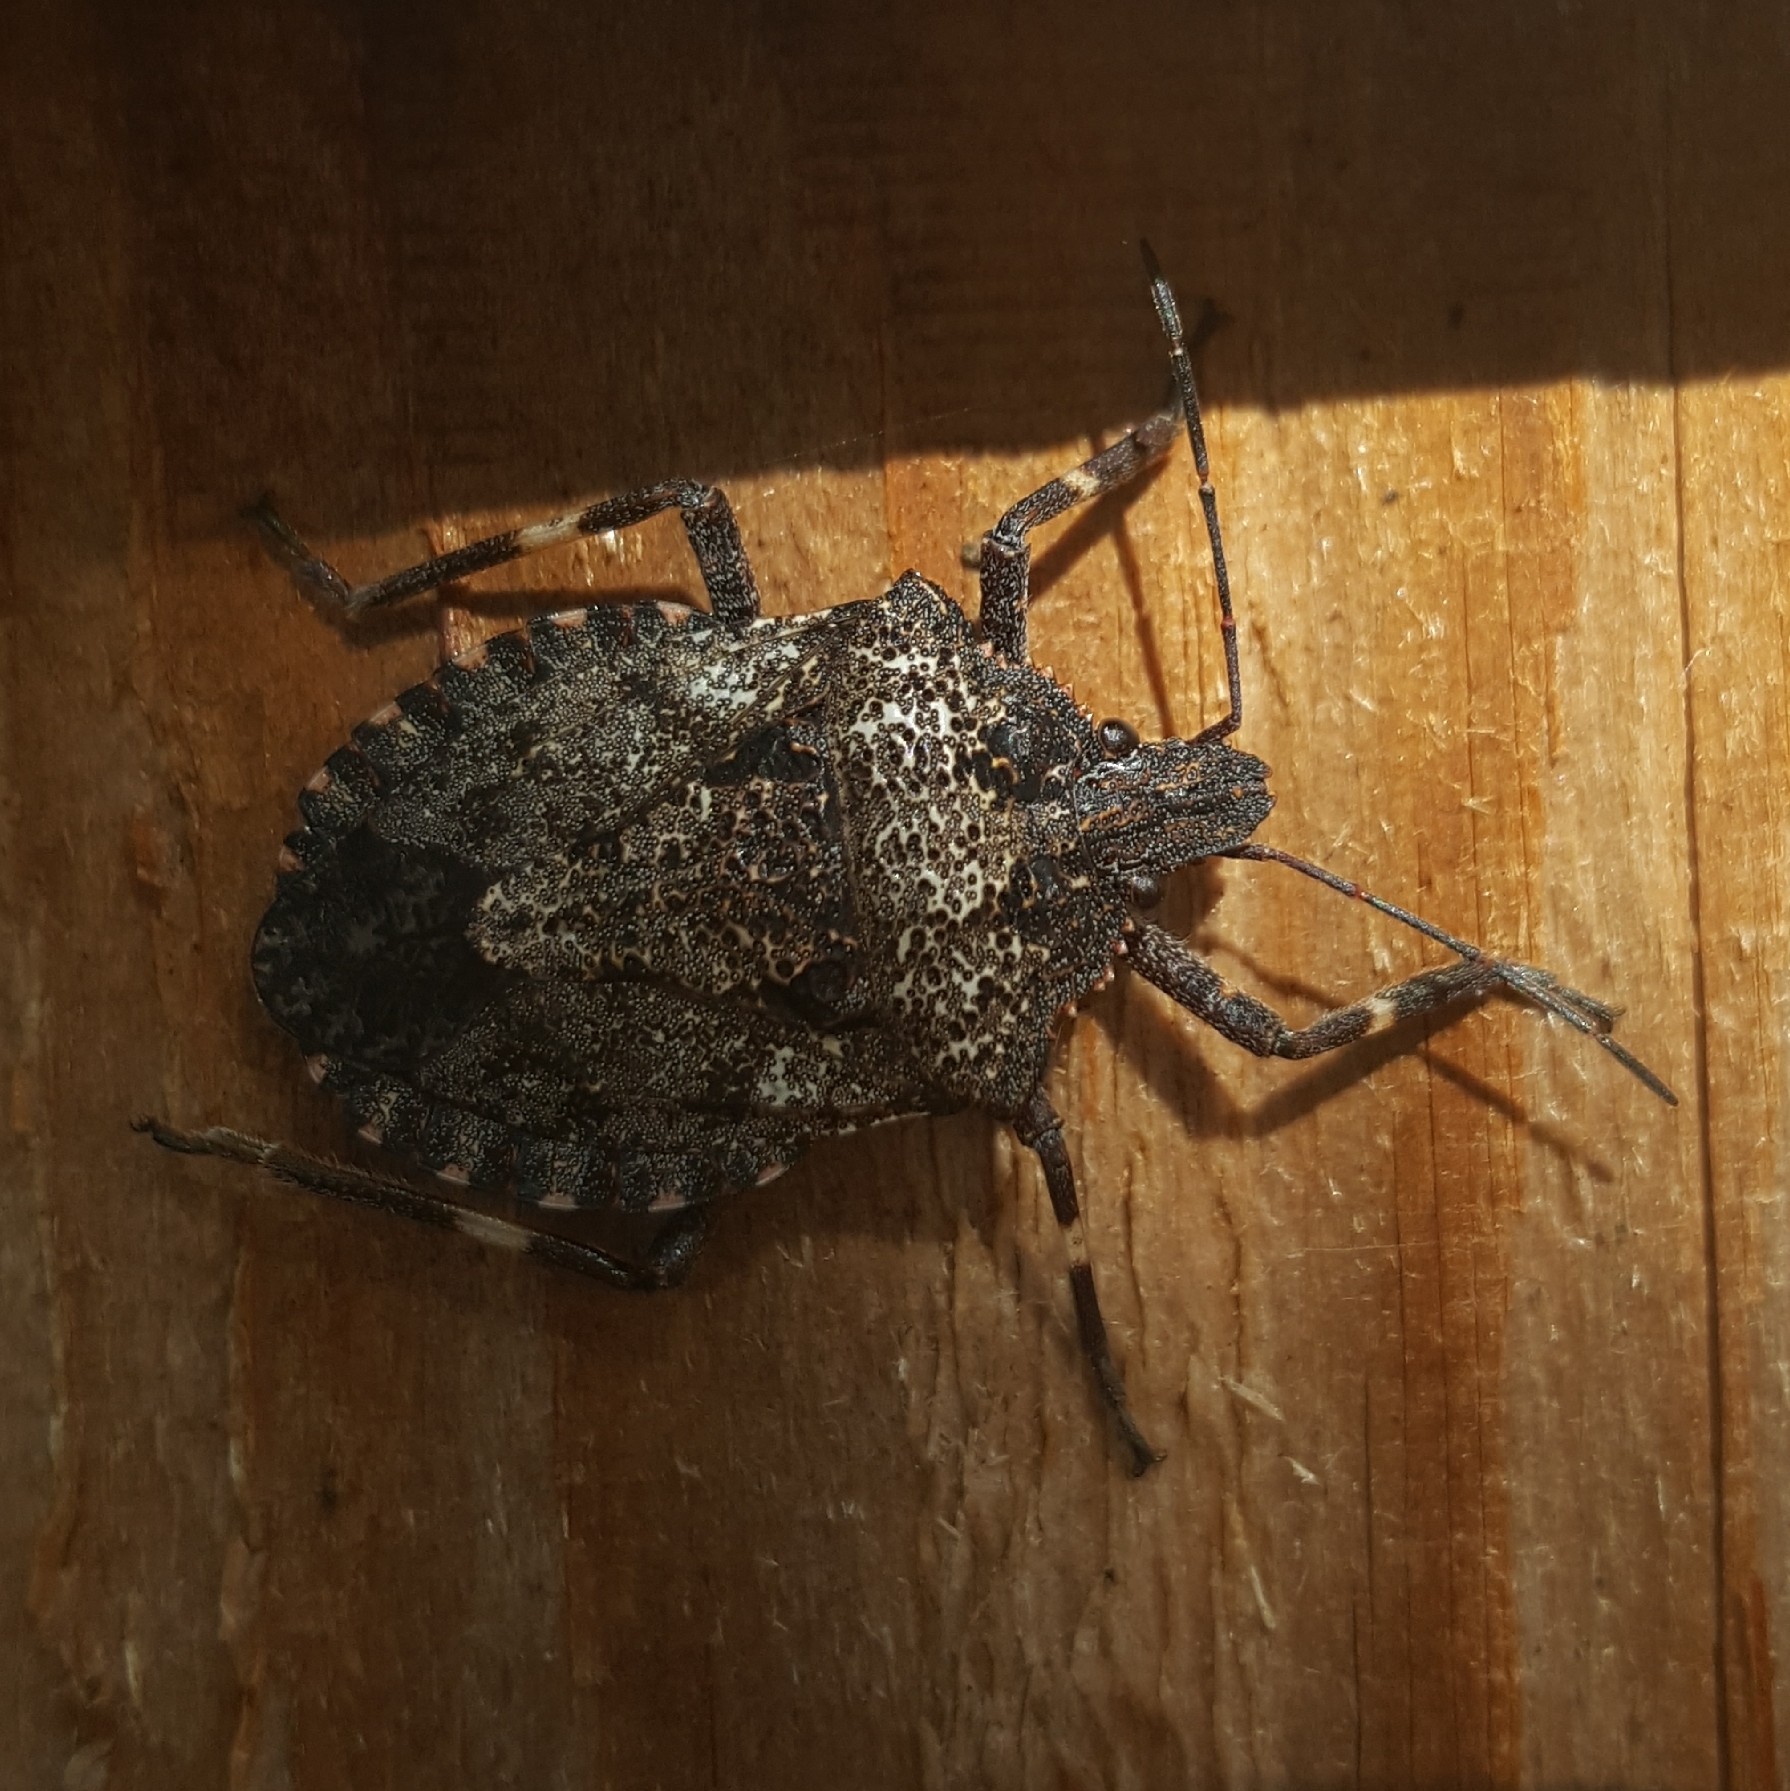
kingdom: Animalia
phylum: Arthropoda
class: Insecta
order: Hemiptera
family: Pentatomidae
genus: Brochymena
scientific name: Brochymena affinis
